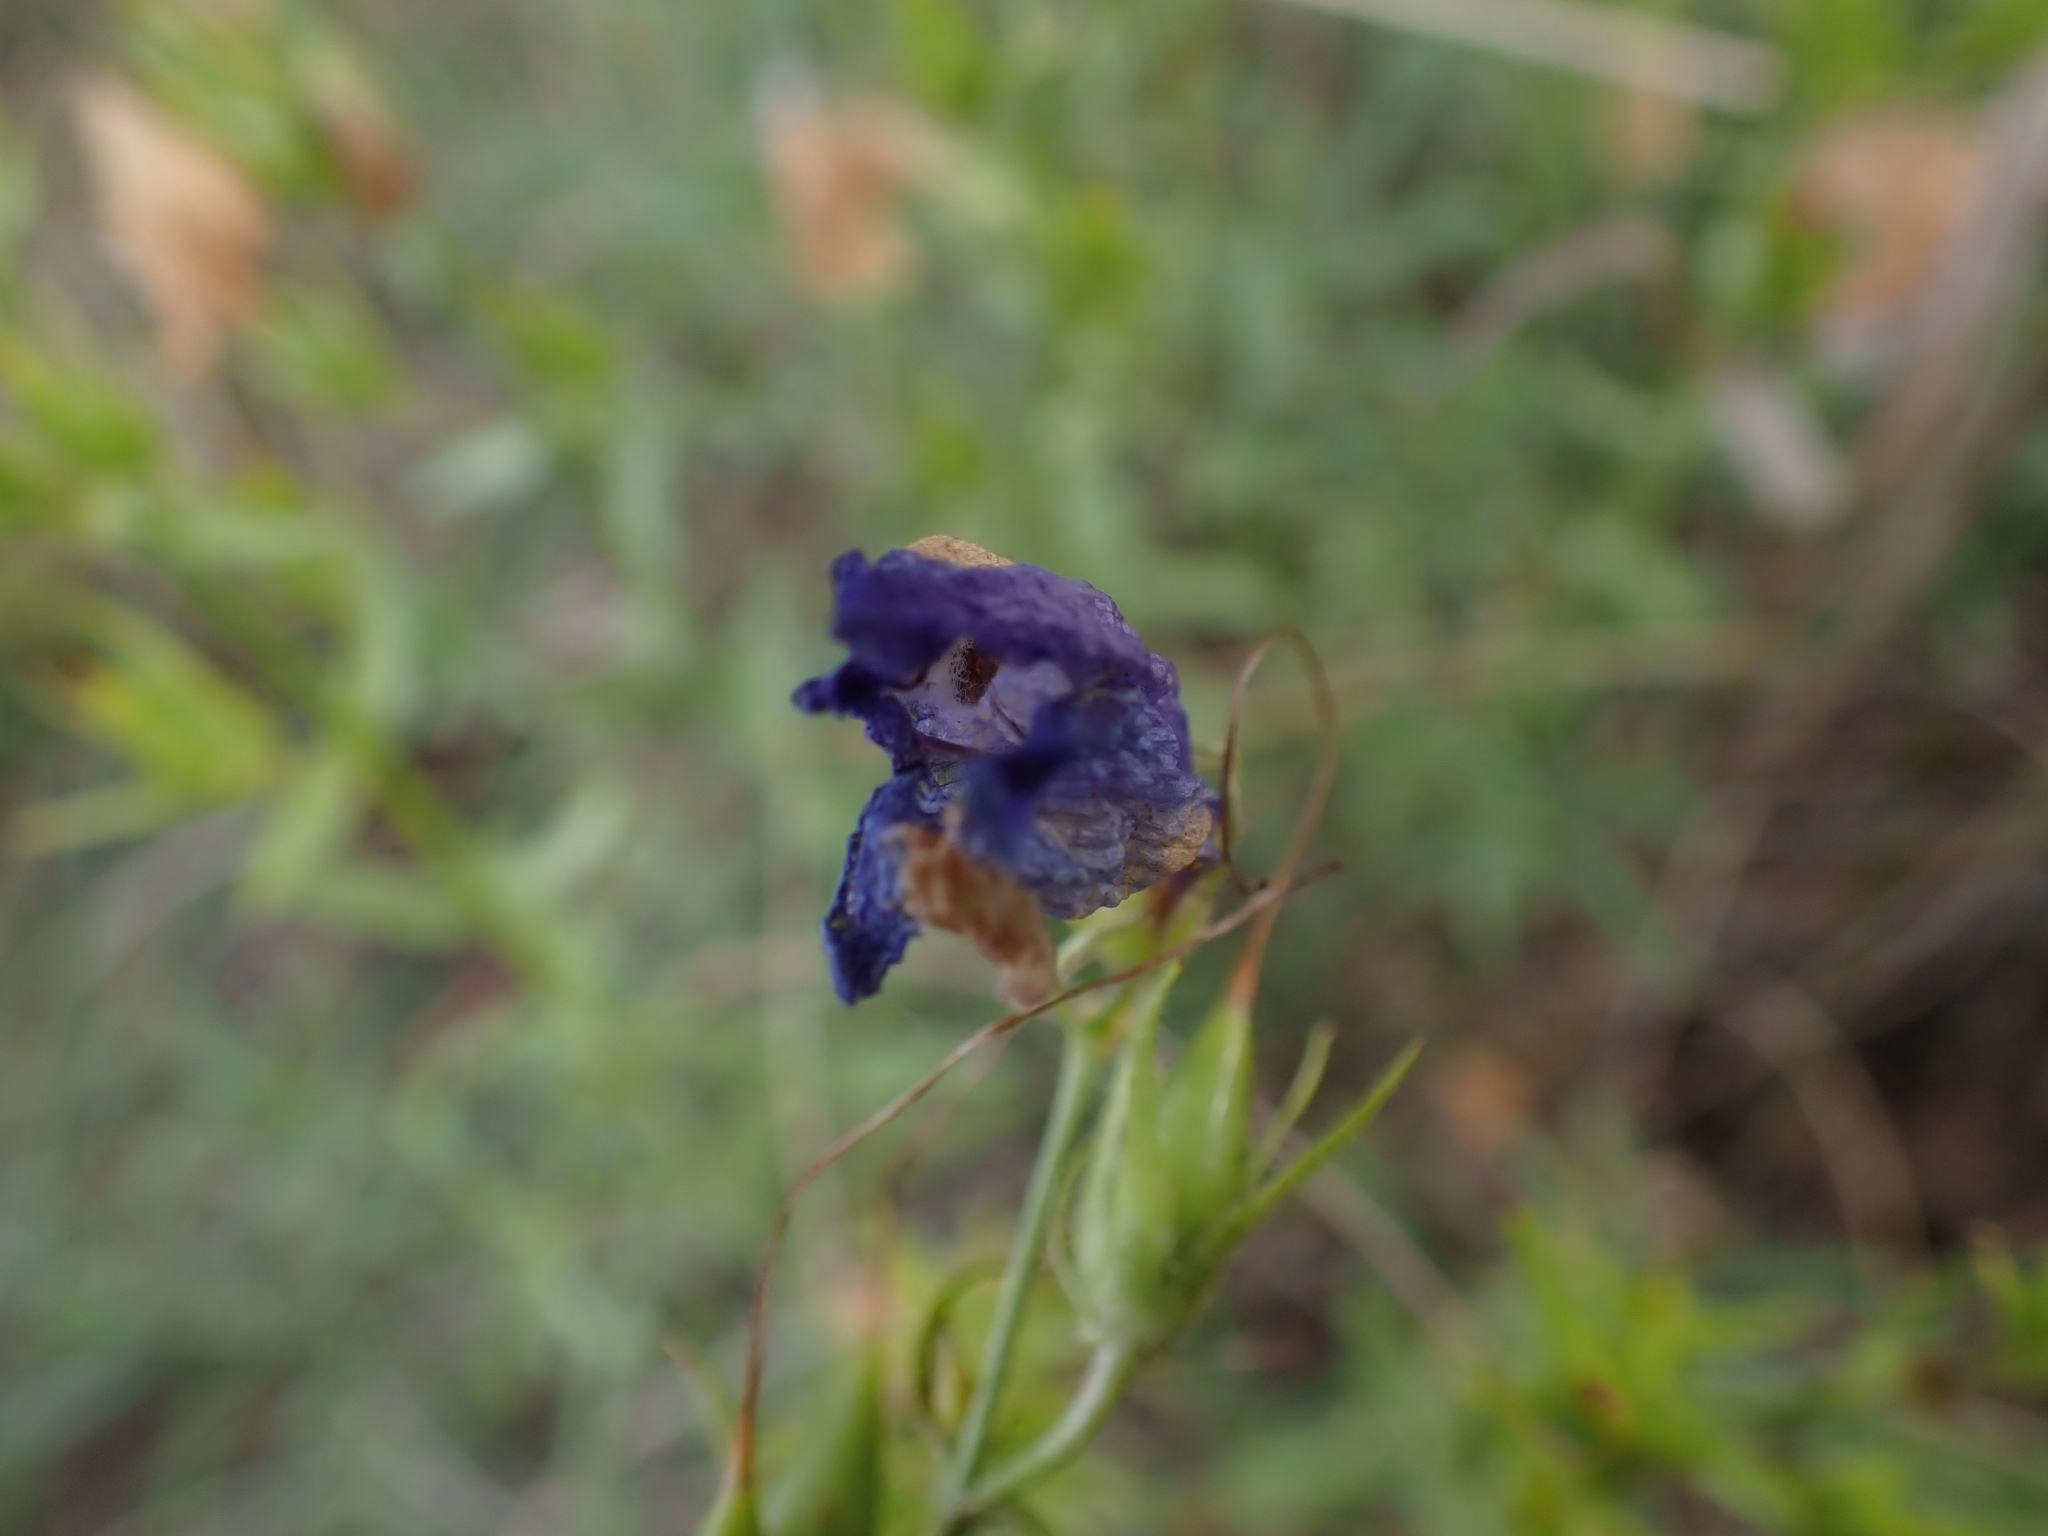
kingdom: Plantae
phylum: Tracheophyta
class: Magnoliopsida
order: Lamiales
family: Plantaginaceae
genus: Penstemon
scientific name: Penstemon fruticosus
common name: Bush penstemon
